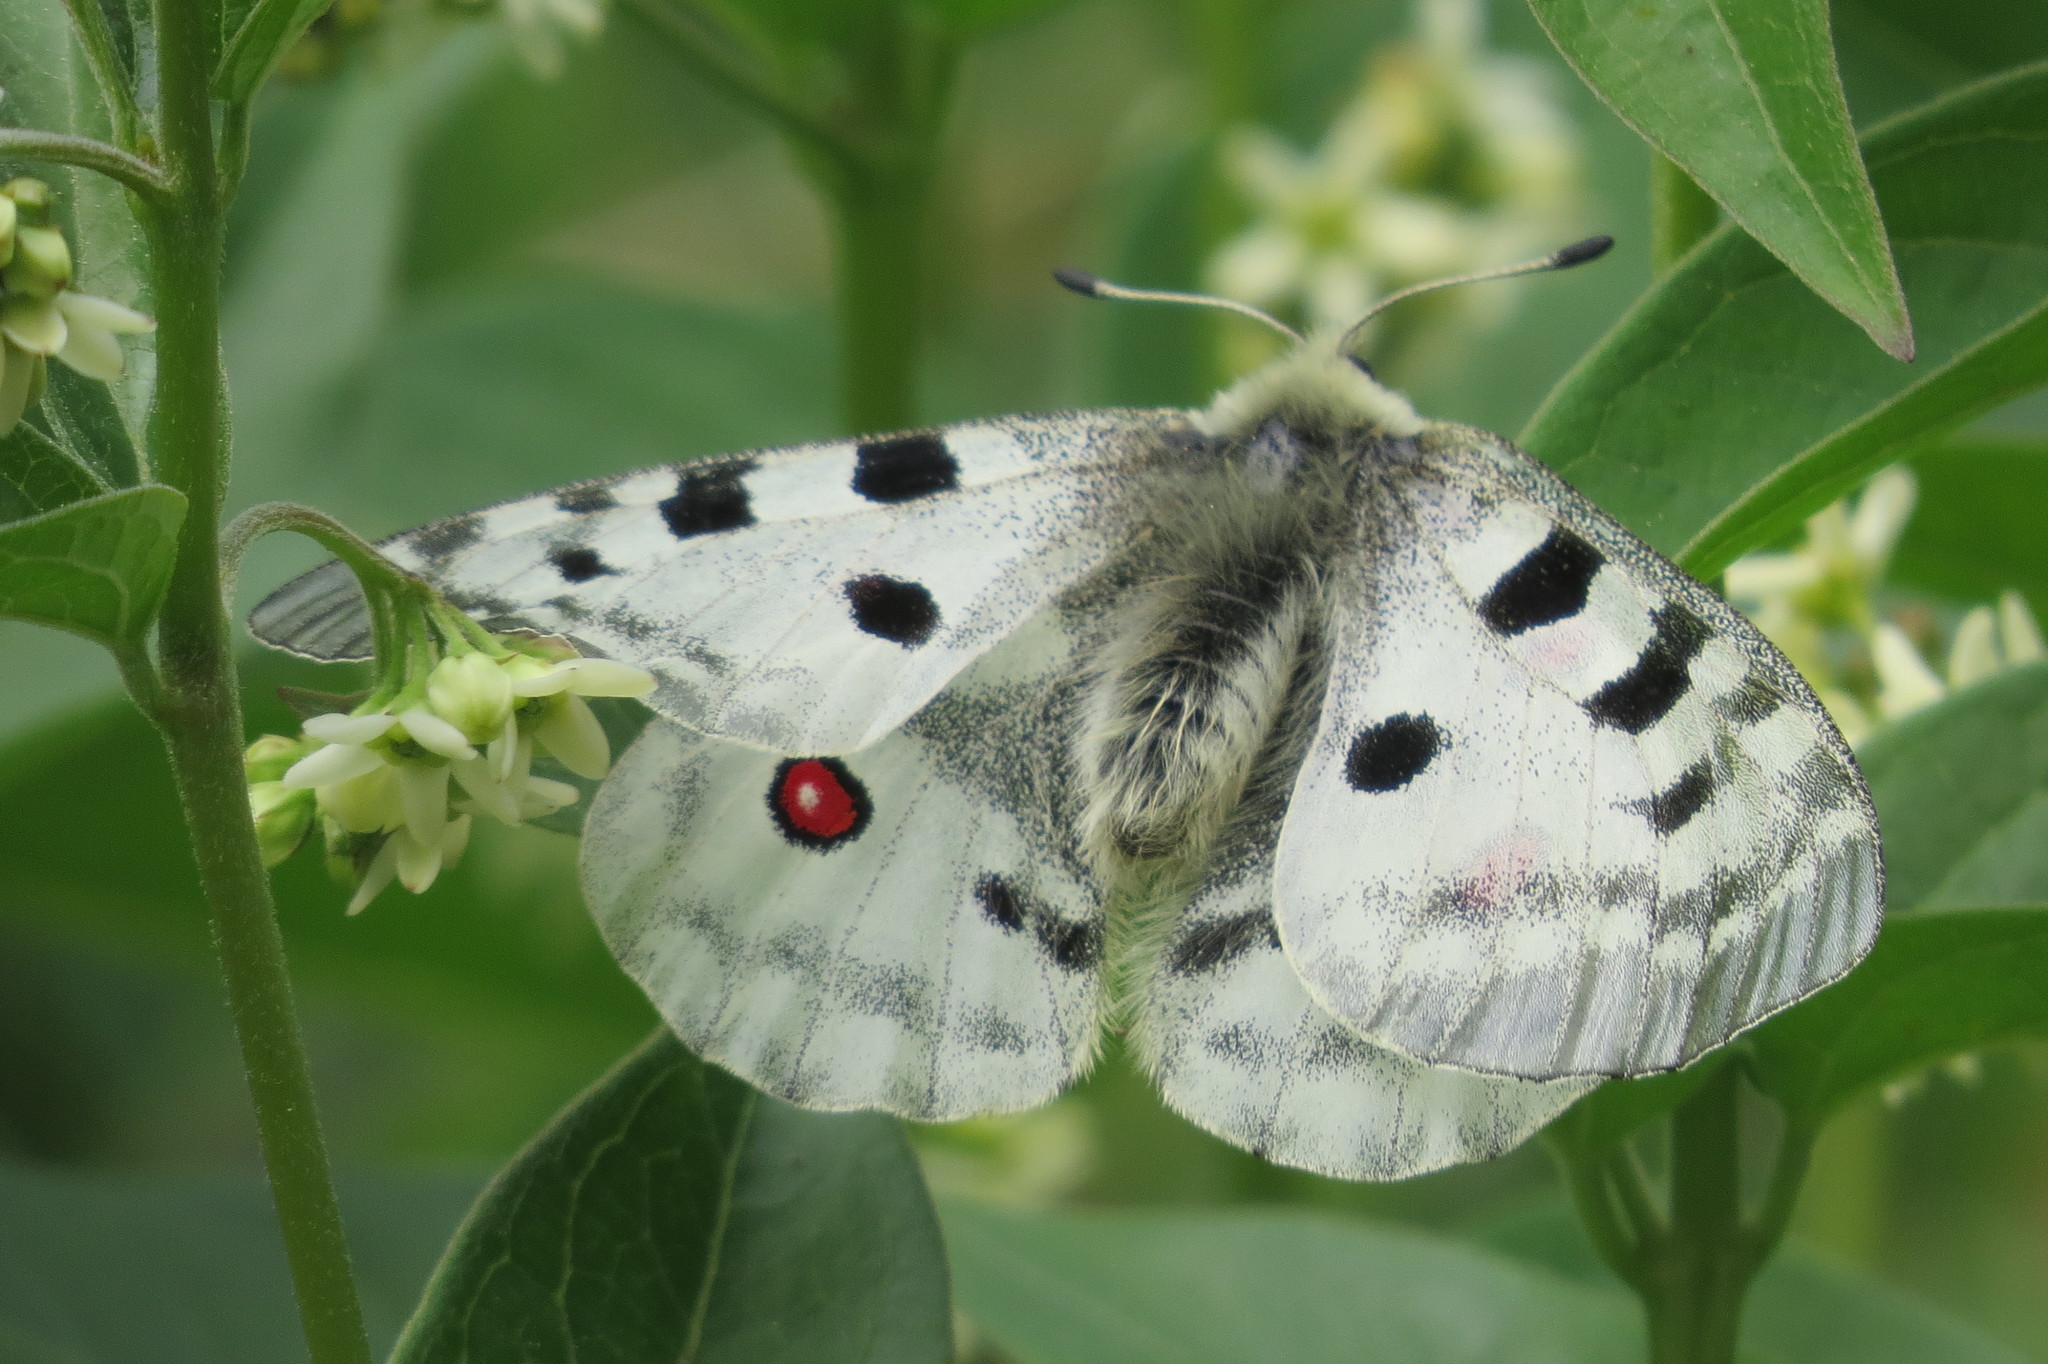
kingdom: Animalia
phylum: Arthropoda
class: Insecta
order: Lepidoptera
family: Papilionidae
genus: Parnassius
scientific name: Parnassius apollo
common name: Apollo
